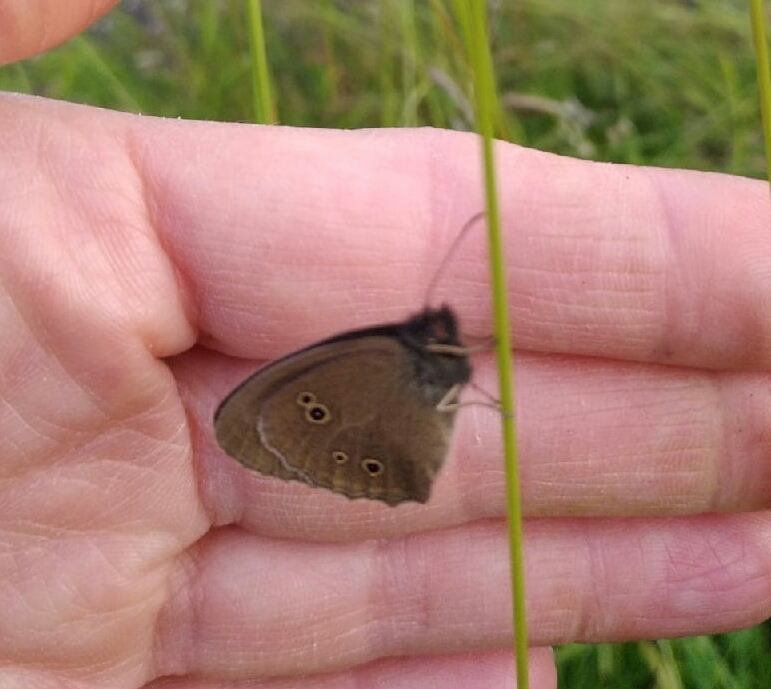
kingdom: Animalia
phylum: Arthropoda
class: Insecta
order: Lepidoptera
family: Nymphalidae
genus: Aphantopus
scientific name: Aphantopus hyperantus
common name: Ringlet
